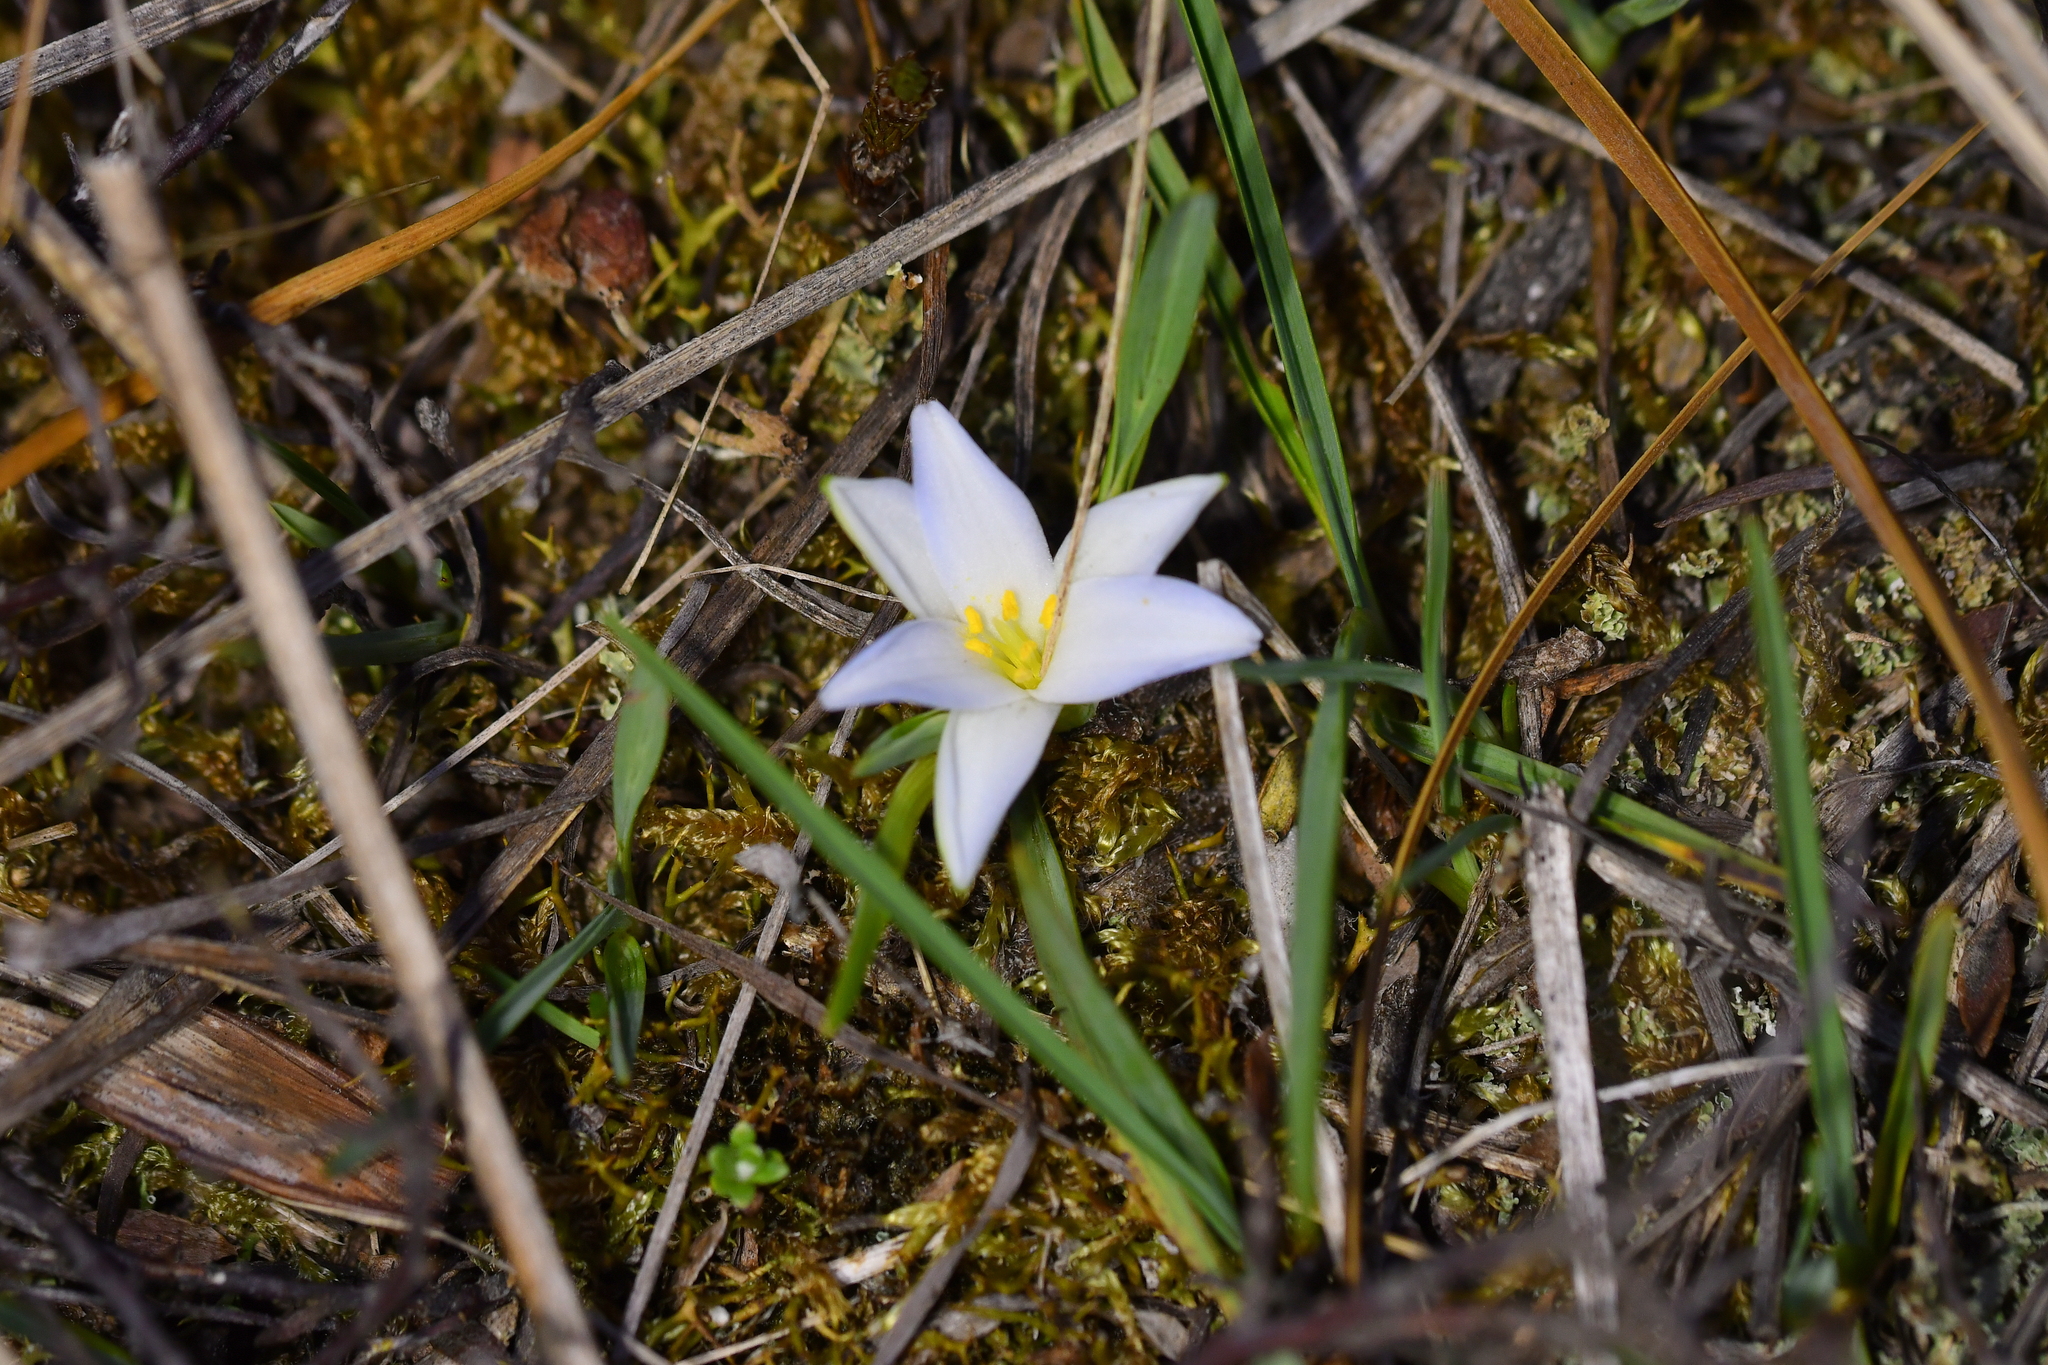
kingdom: Plantae
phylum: Tracheophyta
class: Liliopsida
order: Asparagales
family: Asphodelaceae
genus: Herpolirion
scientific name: Herpolirion novae-zelandiae
